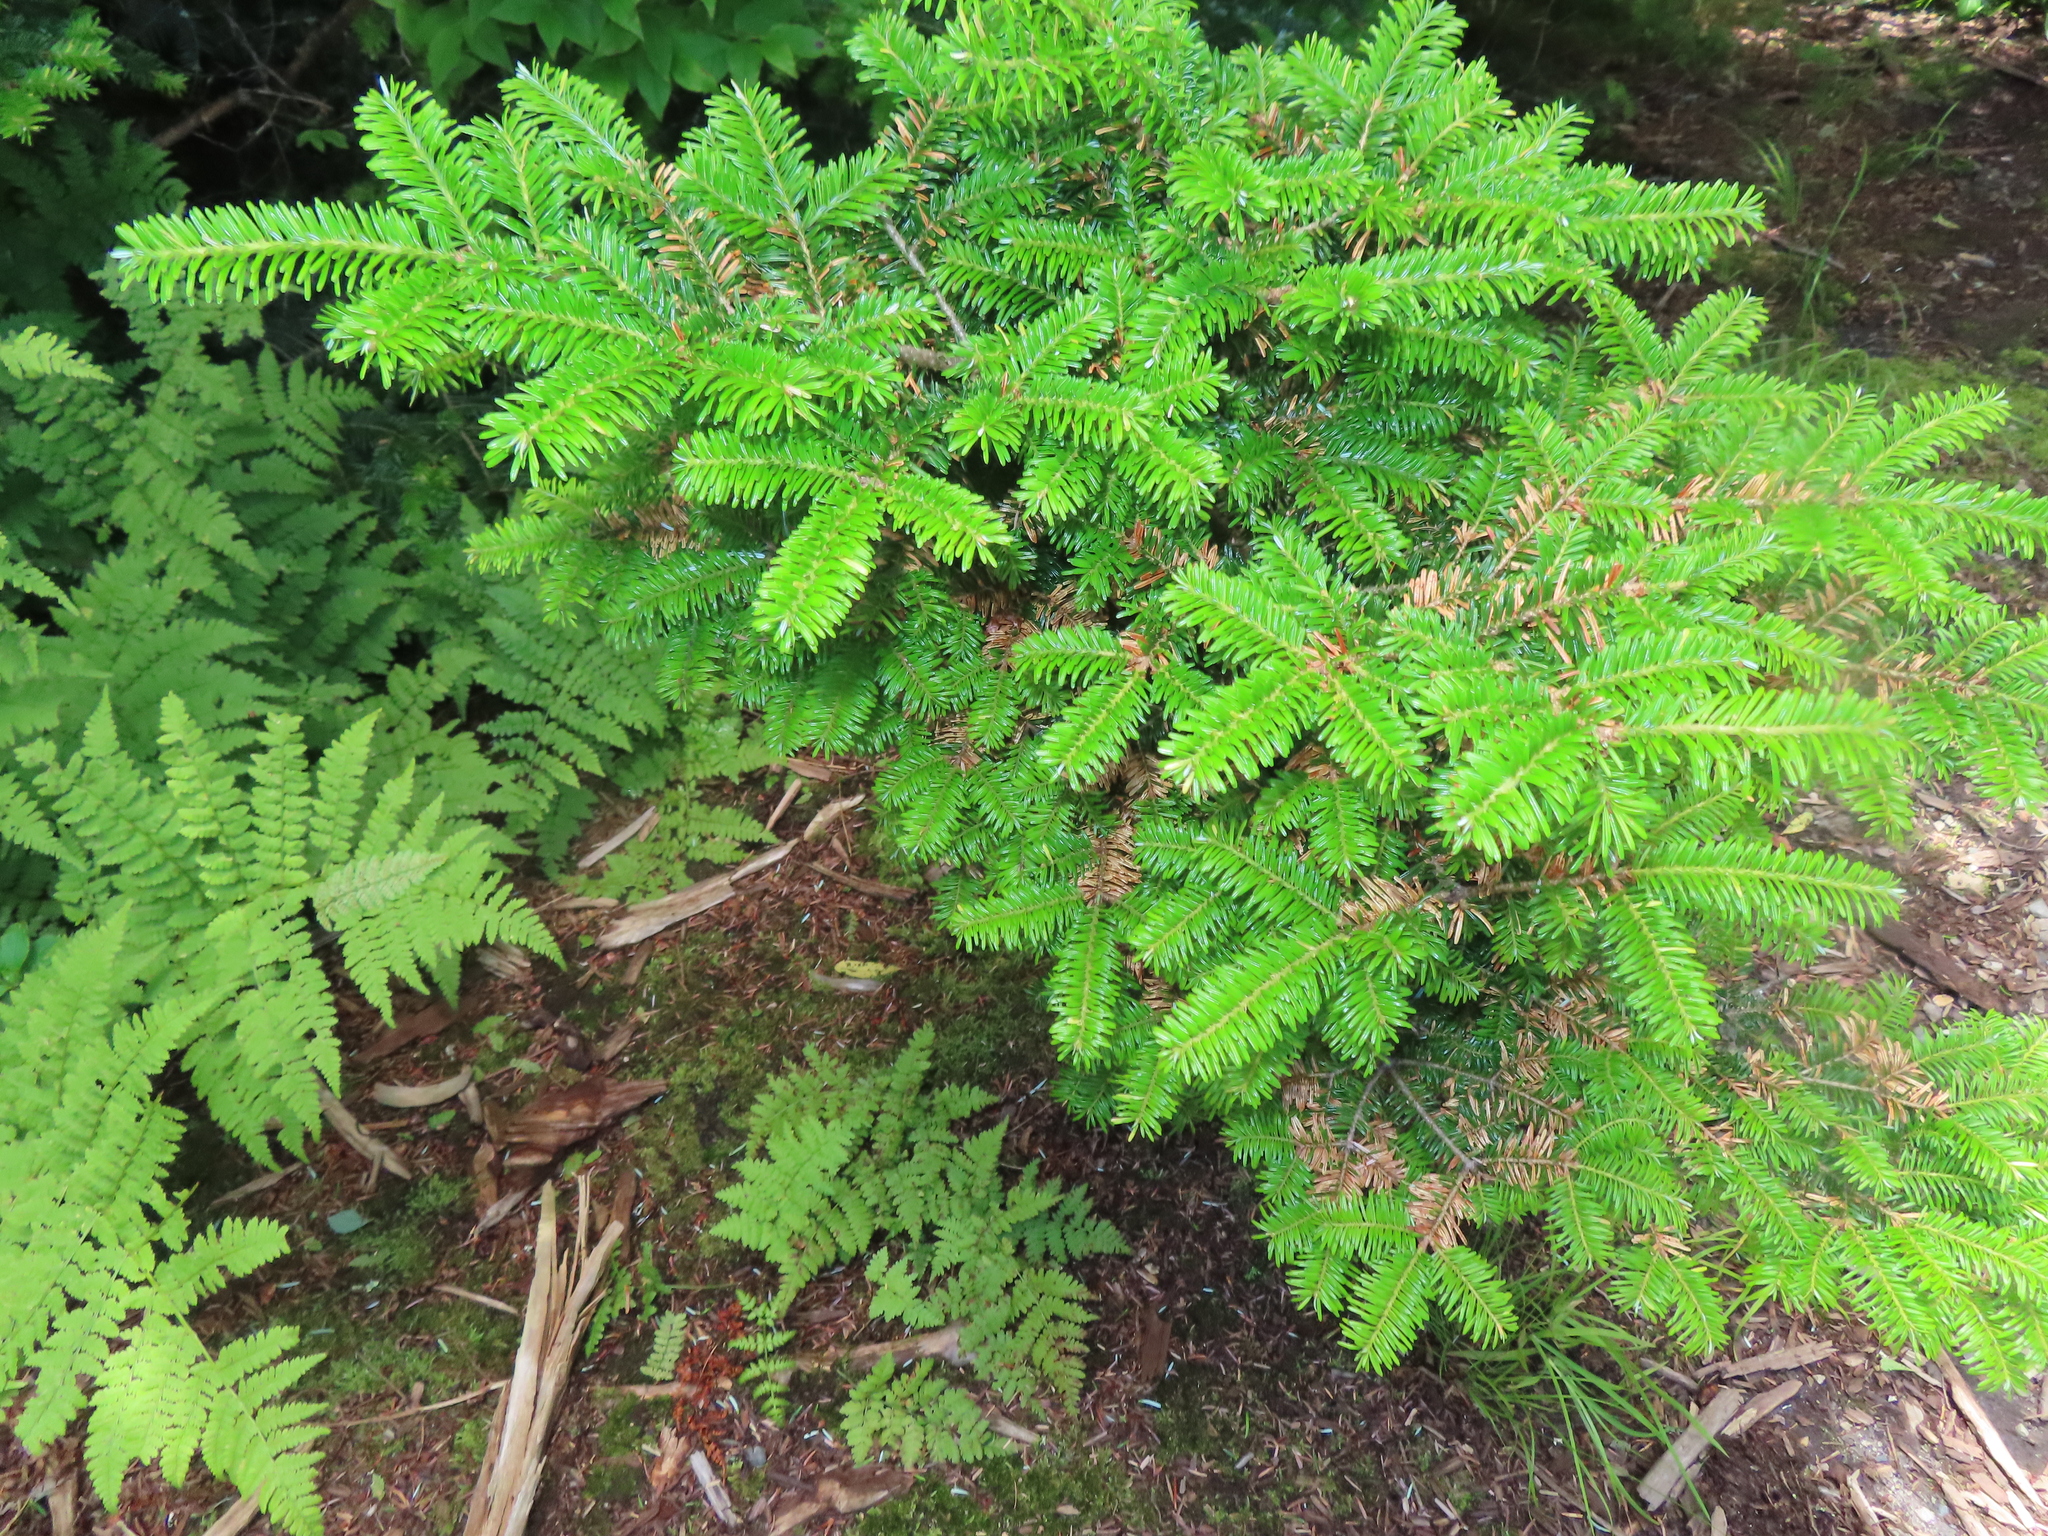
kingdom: Plantae
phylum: Tracheophyta
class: Pinopsida
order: Pinales
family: Pinaceae
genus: Abies
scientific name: Abies fraseri
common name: Fraser fir
